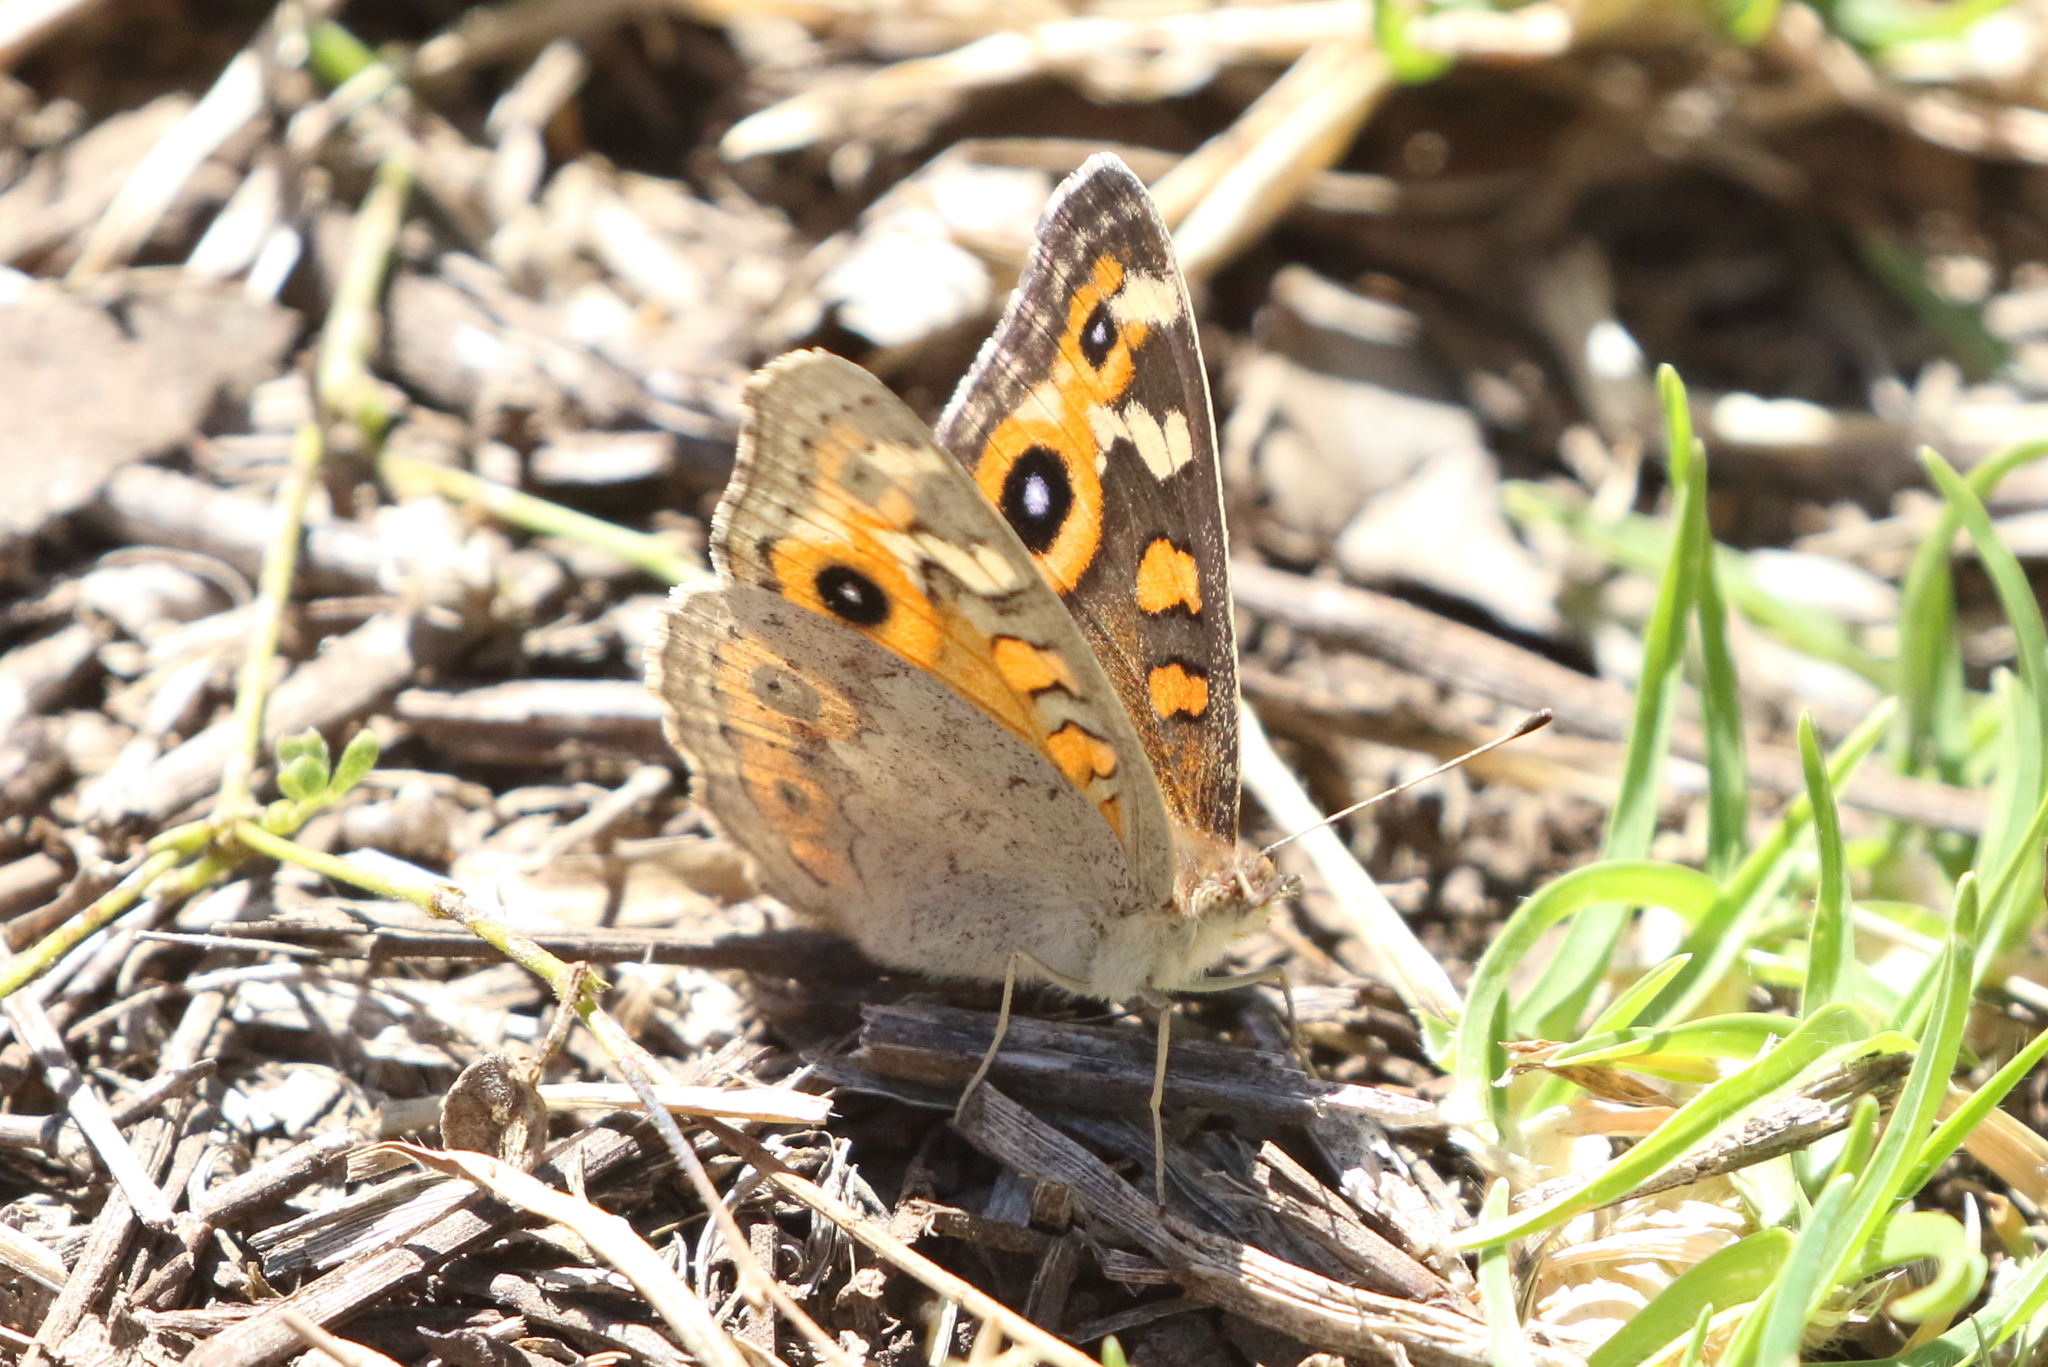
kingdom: Animalia
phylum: Arthropoda
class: Insecta
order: Lepidoptera
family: Nymphalidae
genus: Junonia
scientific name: Junonia villida
